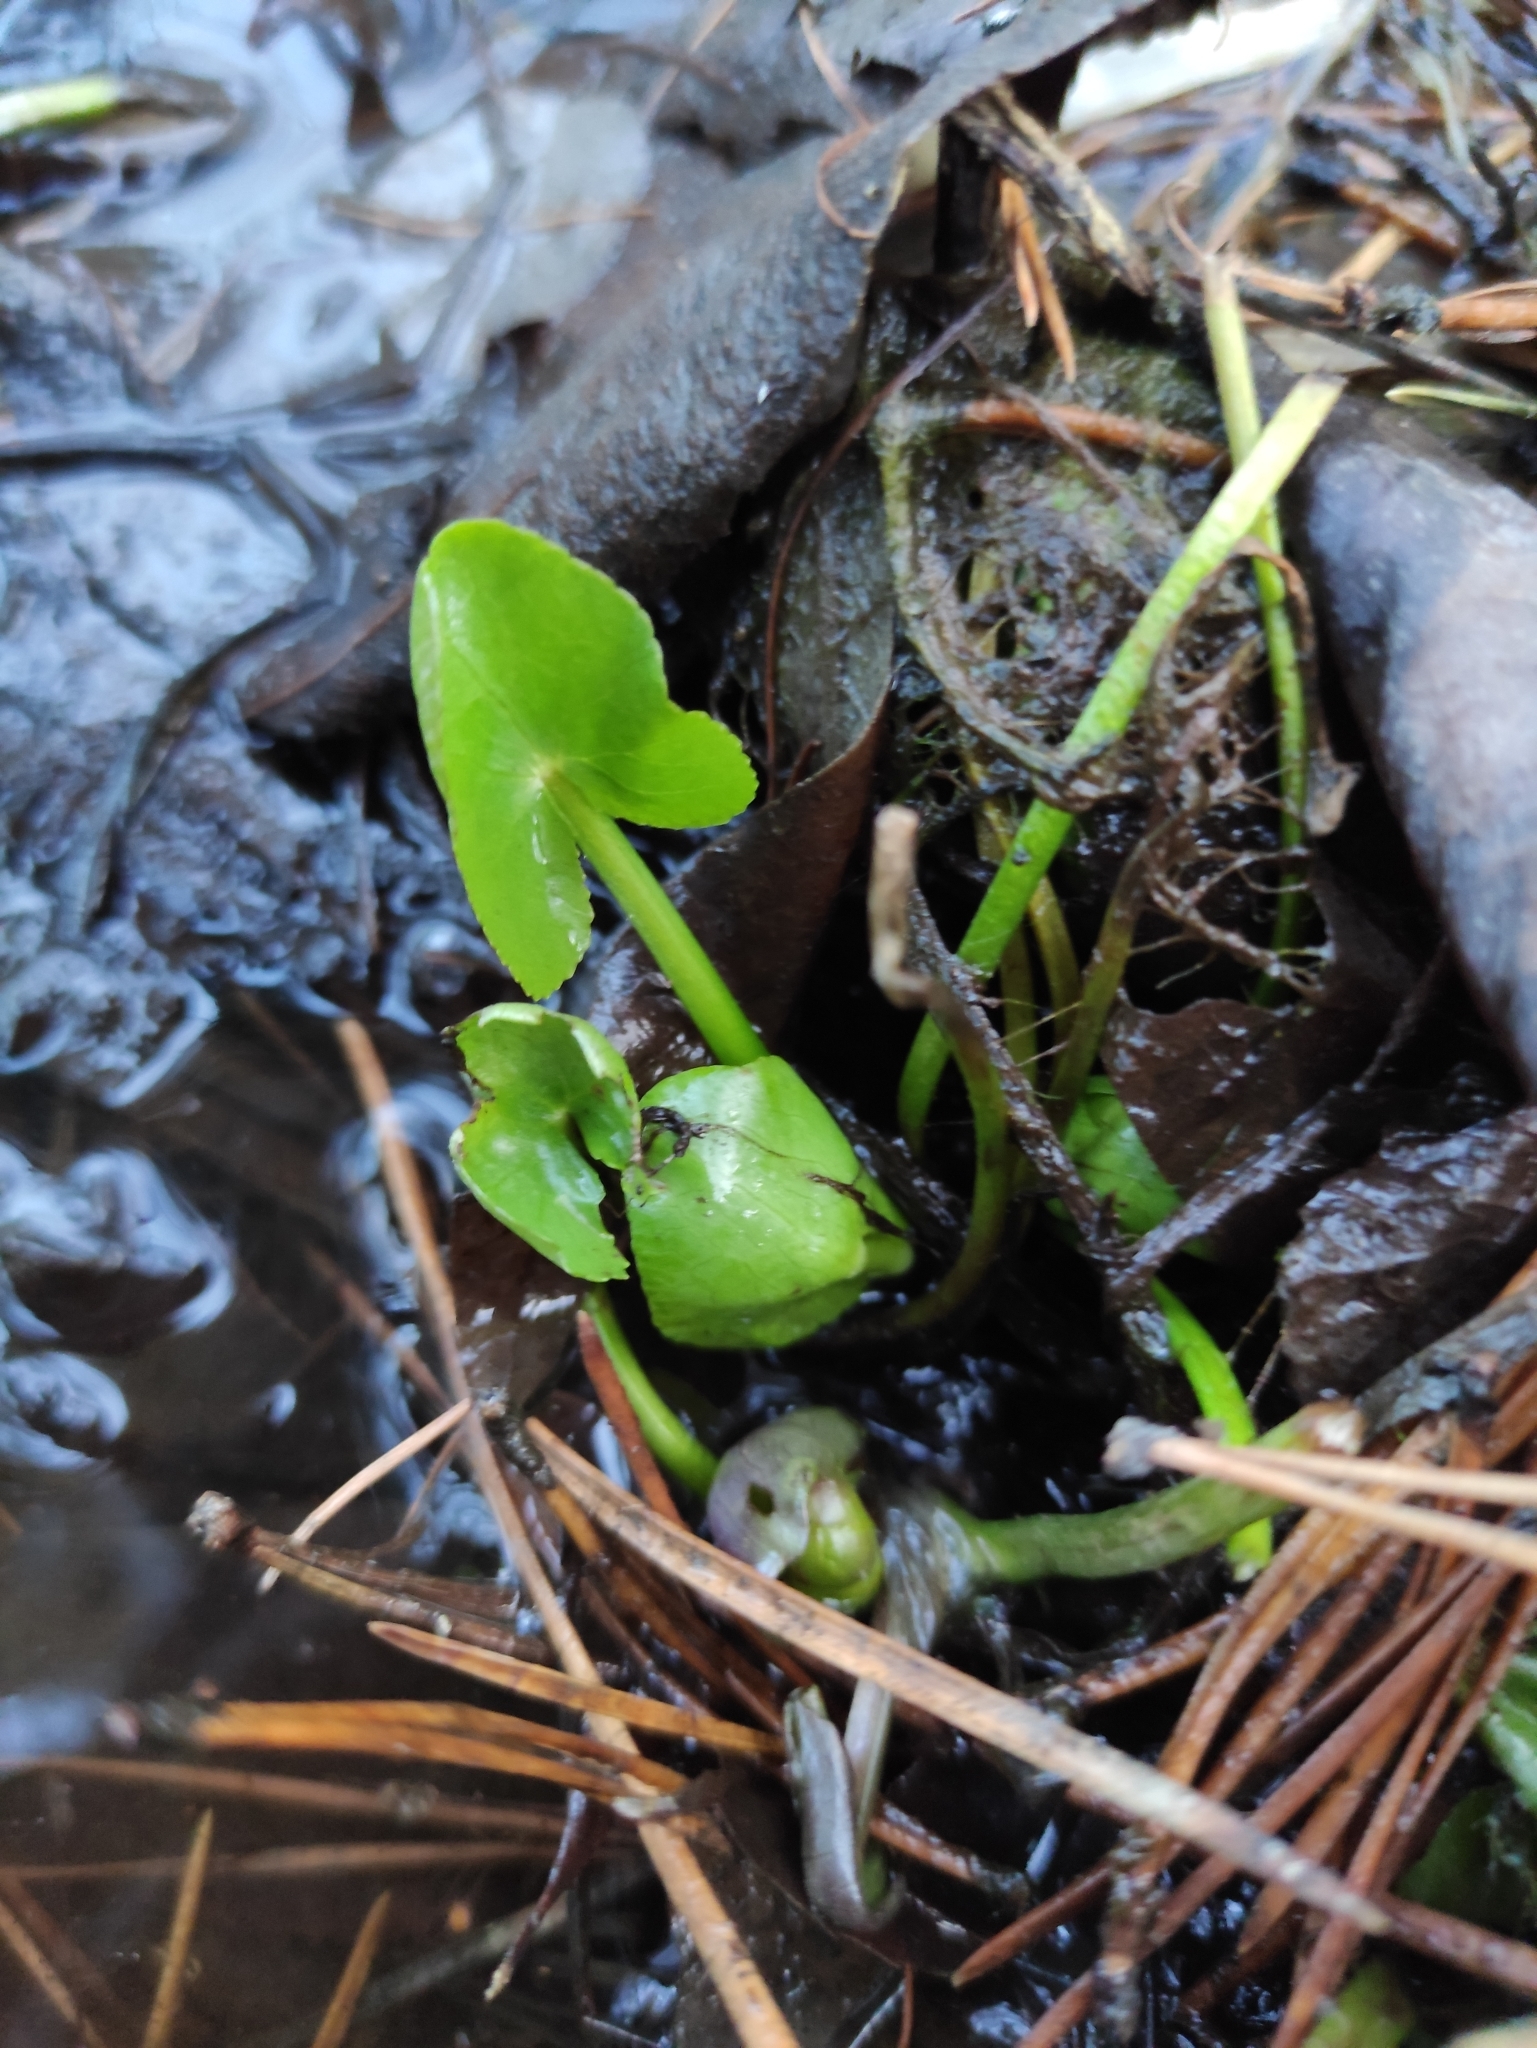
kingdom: Plantae
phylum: Tracheophyta
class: Magnoliopsida
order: Ranunculales
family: Ranunculaceae
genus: Caltha
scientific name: Caltha palustris
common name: Marsh marigold
